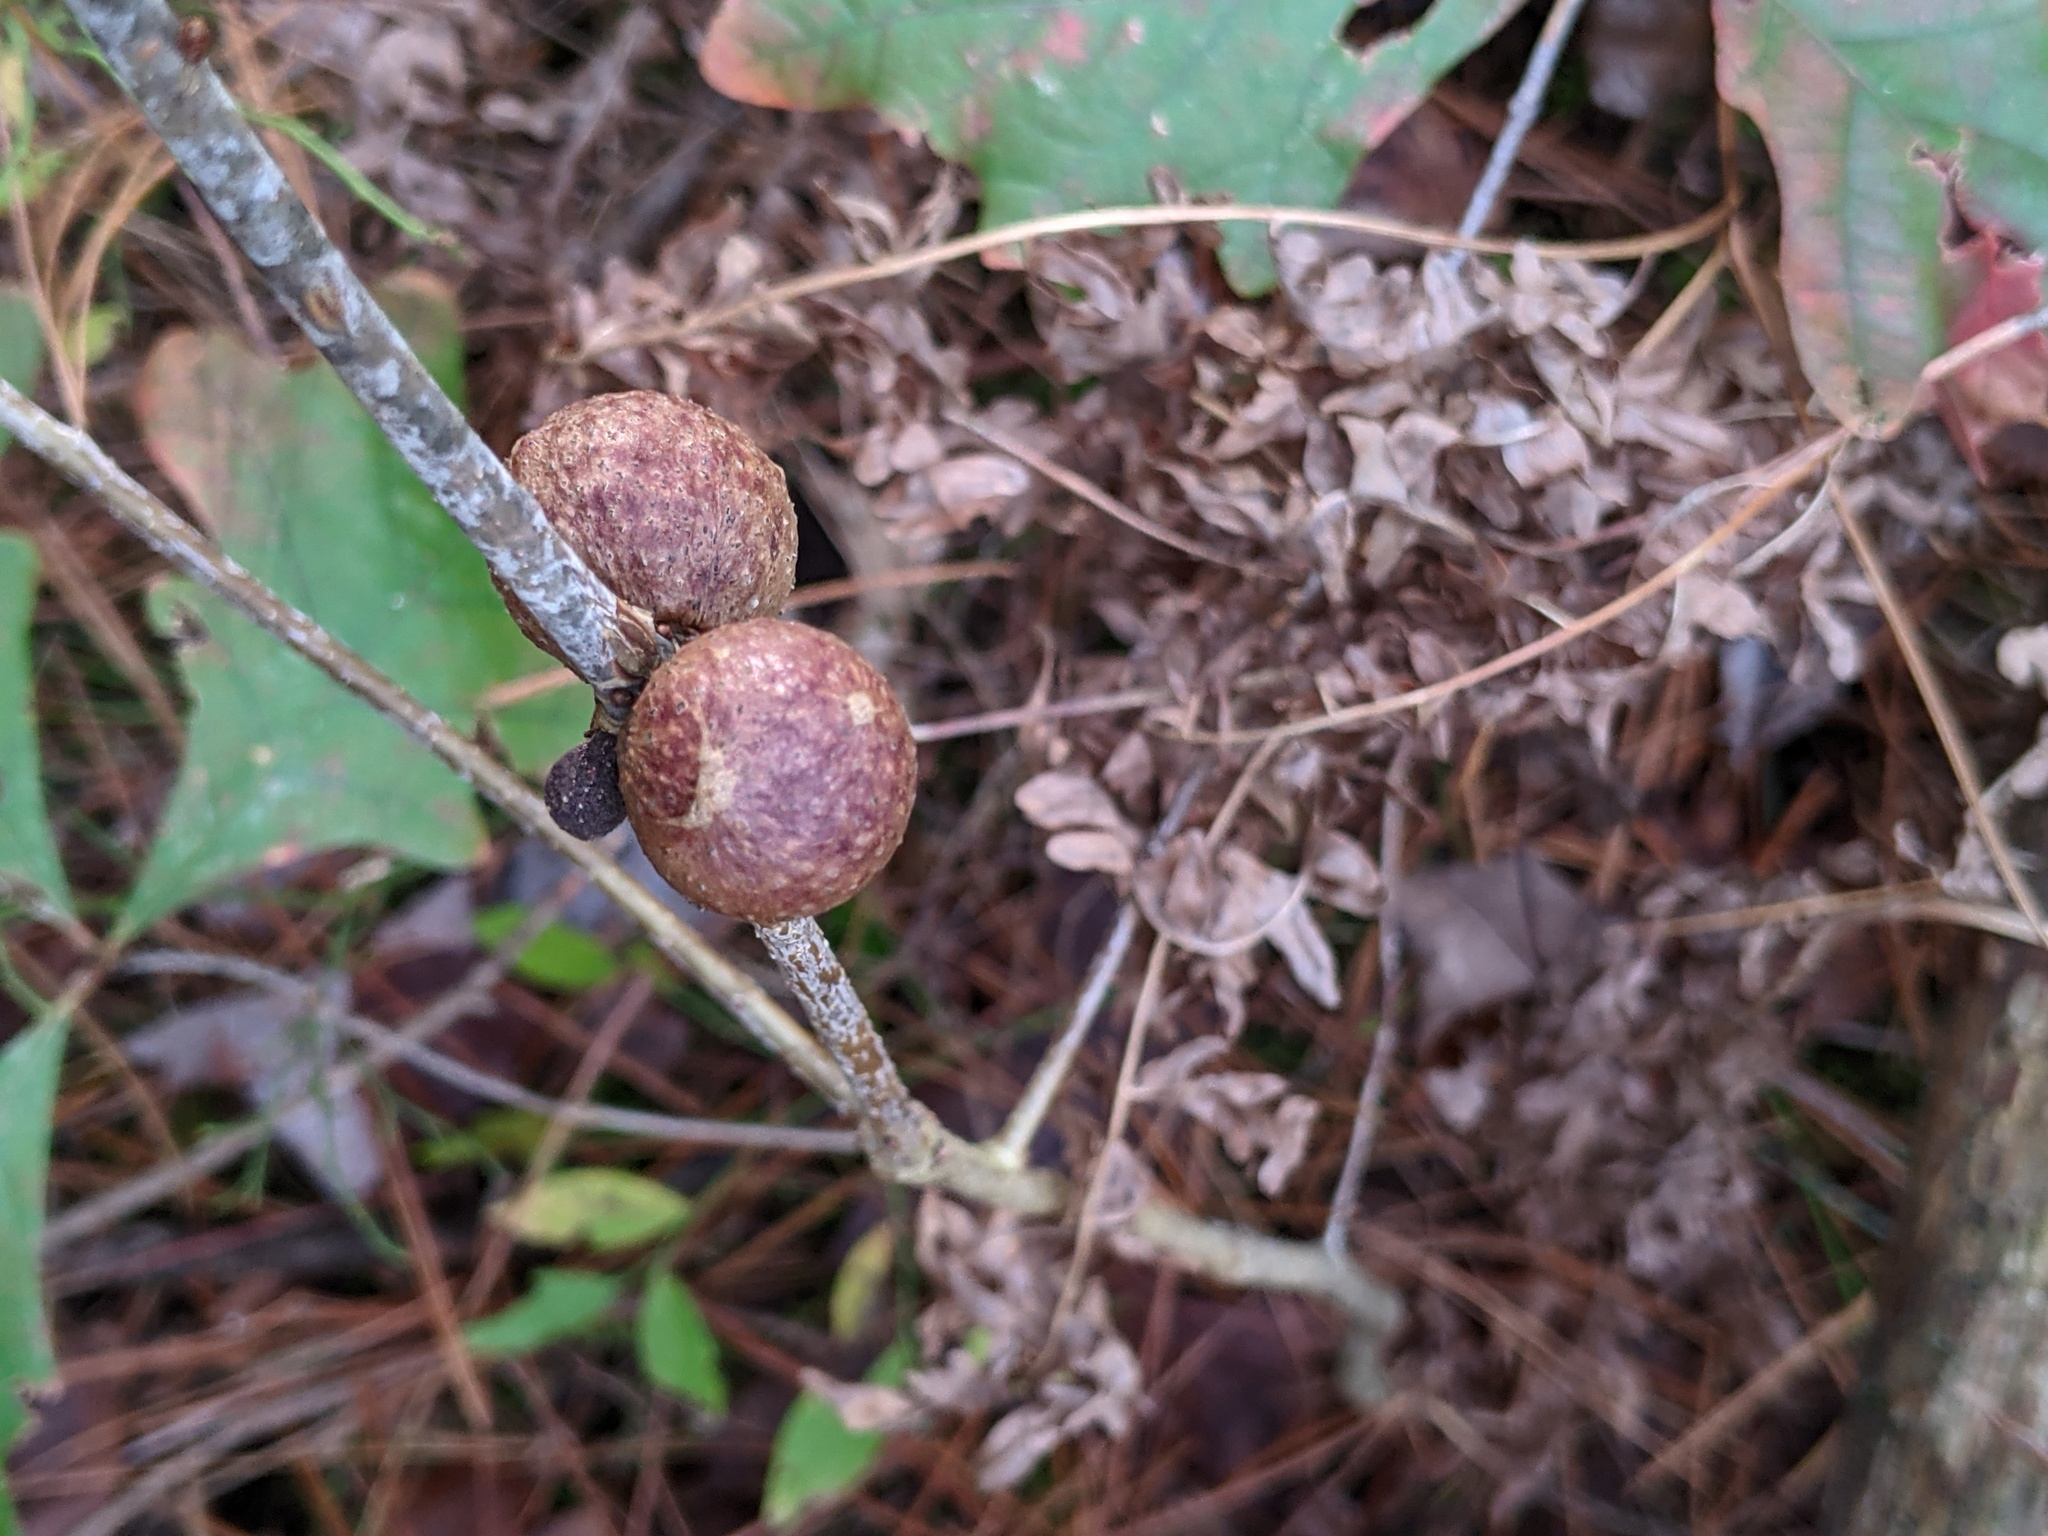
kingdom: Animalia
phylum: Arthropoda
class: Insecta
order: Hymenoptera
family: Cynipidae
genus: Disholcaspis
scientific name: Disholcaspis quercusglobulus
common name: Round bullet gall wasp
